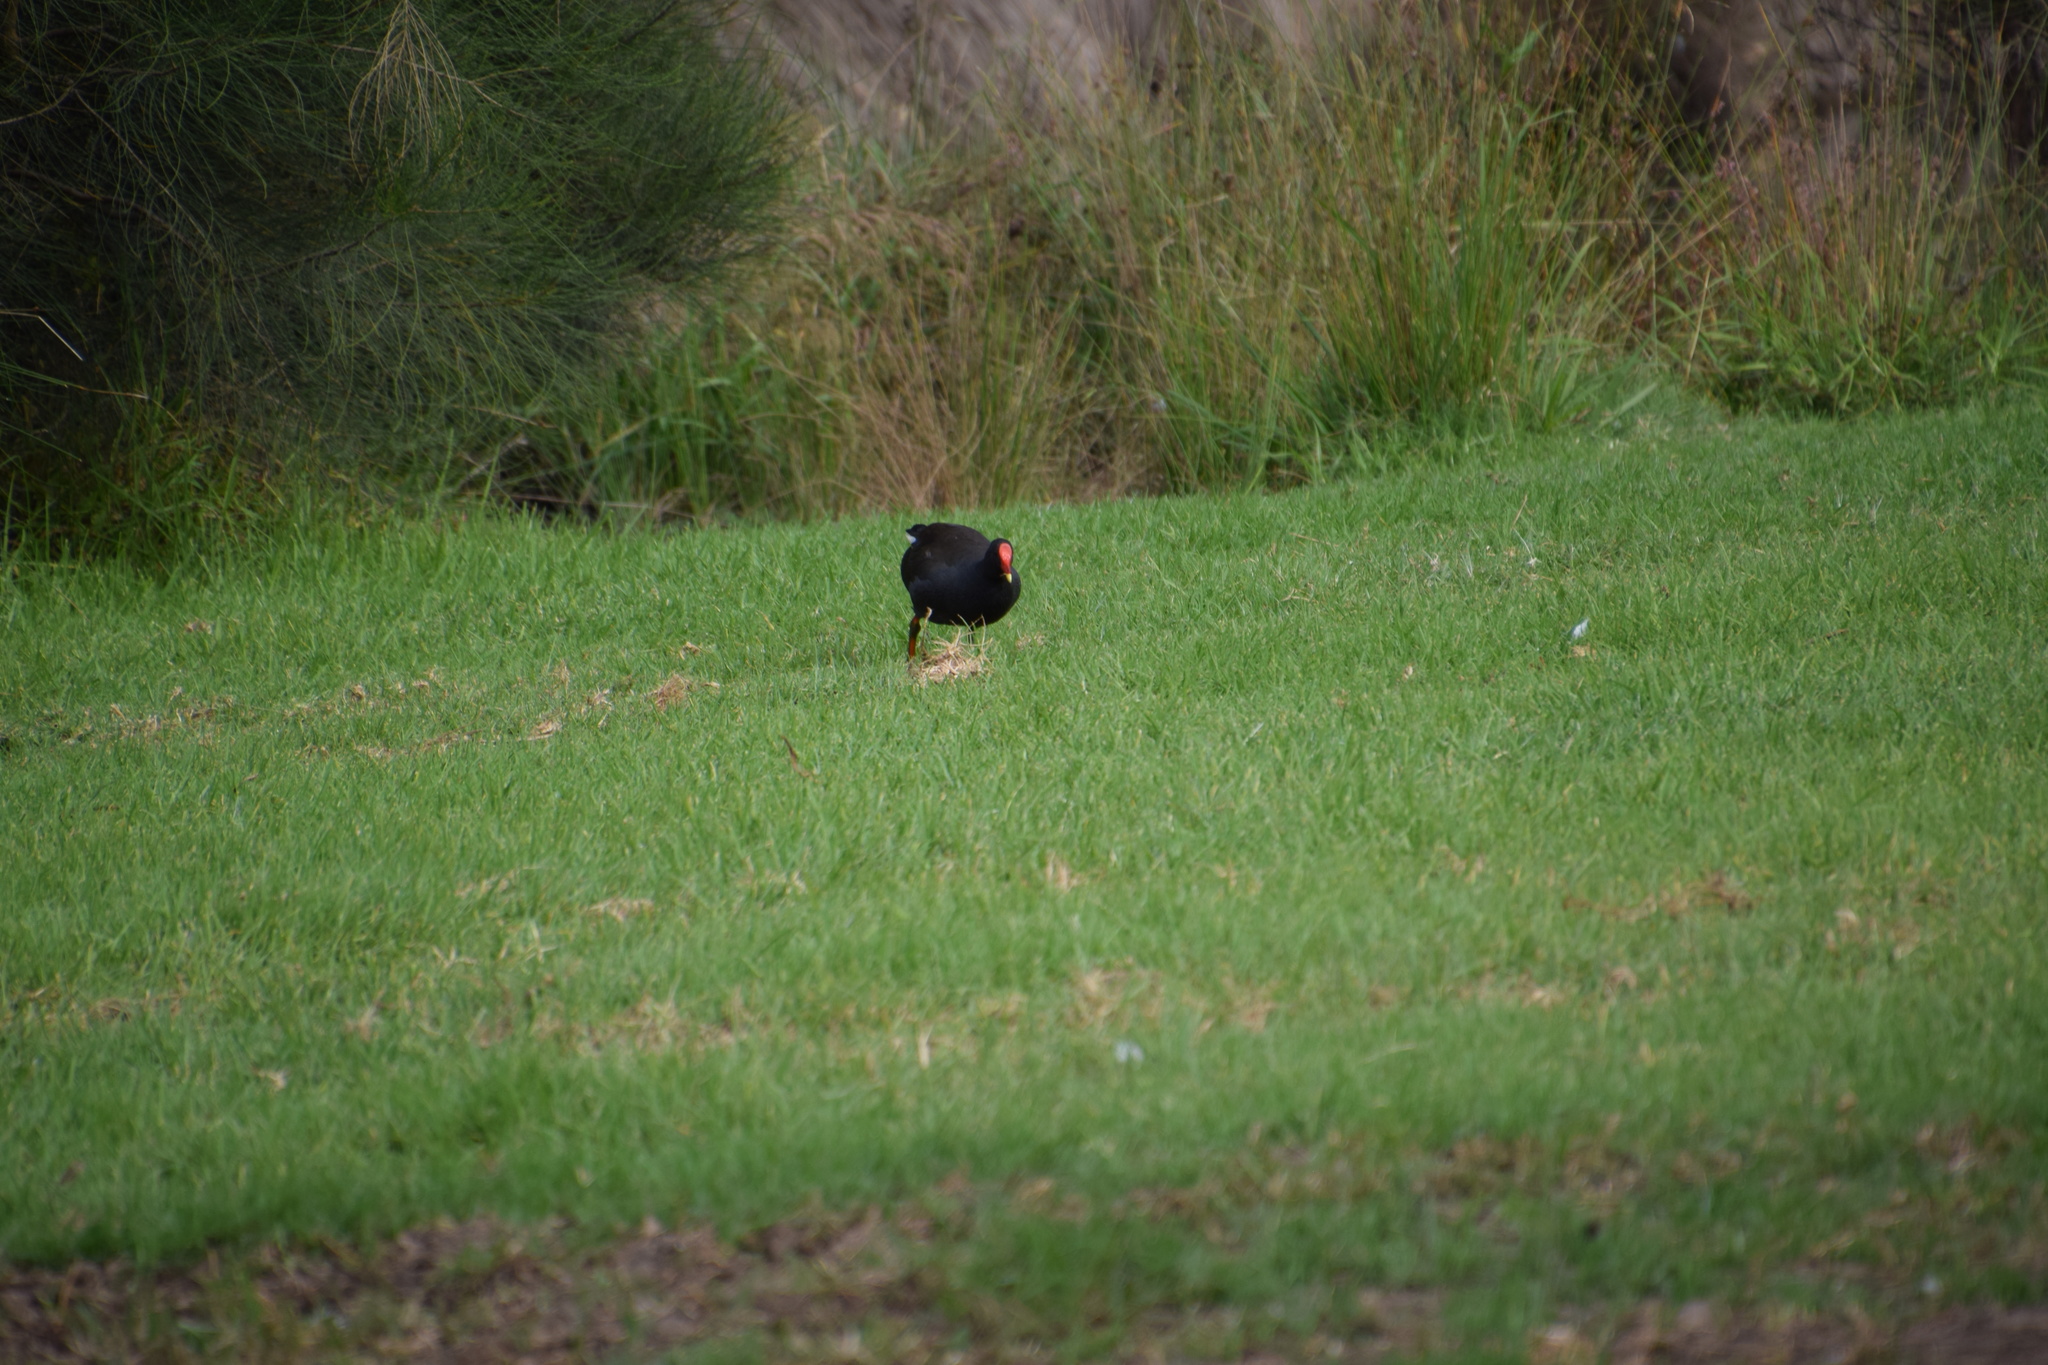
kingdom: Animalia
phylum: Chordata
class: Aves
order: Gruiformes
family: Rallidae
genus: Gallinula
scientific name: Gallinula tenebrosa
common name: Dusky moorhen
